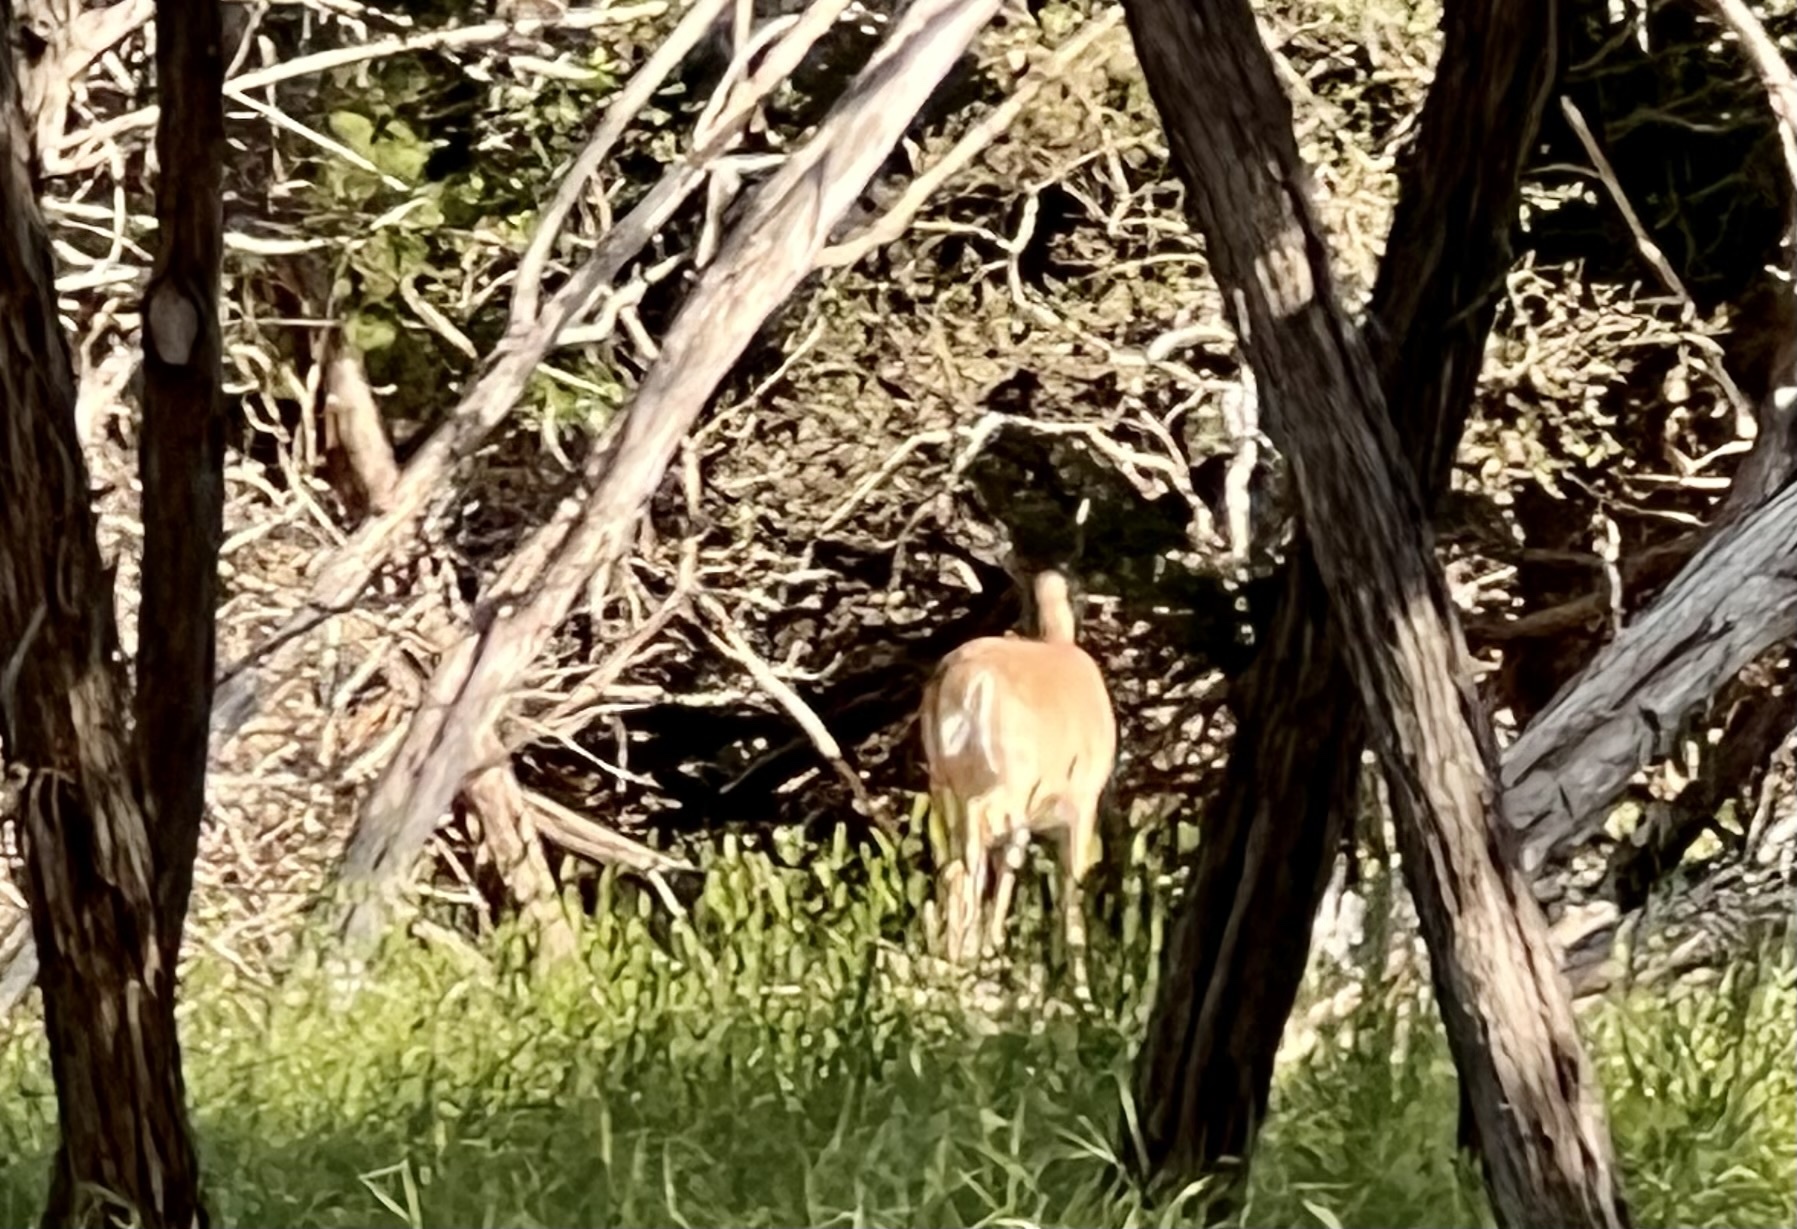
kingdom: Animalia
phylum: Chordata
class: Mammalia
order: Artiodactyla
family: Cervidae
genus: Odocoileus
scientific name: Odocoileus virginianus
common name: White-tailed deer
